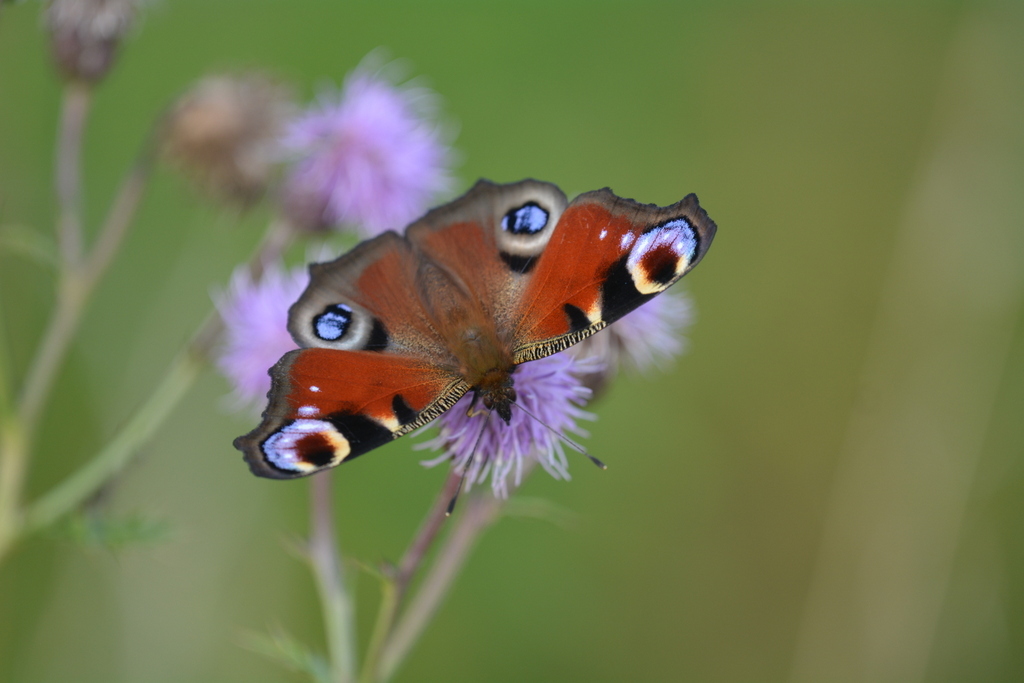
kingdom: Animalia
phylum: Arthropoda
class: Insecta
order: Lepidoptera
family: Nymphalidae
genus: Aglais
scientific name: Aglais io
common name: Peacock
